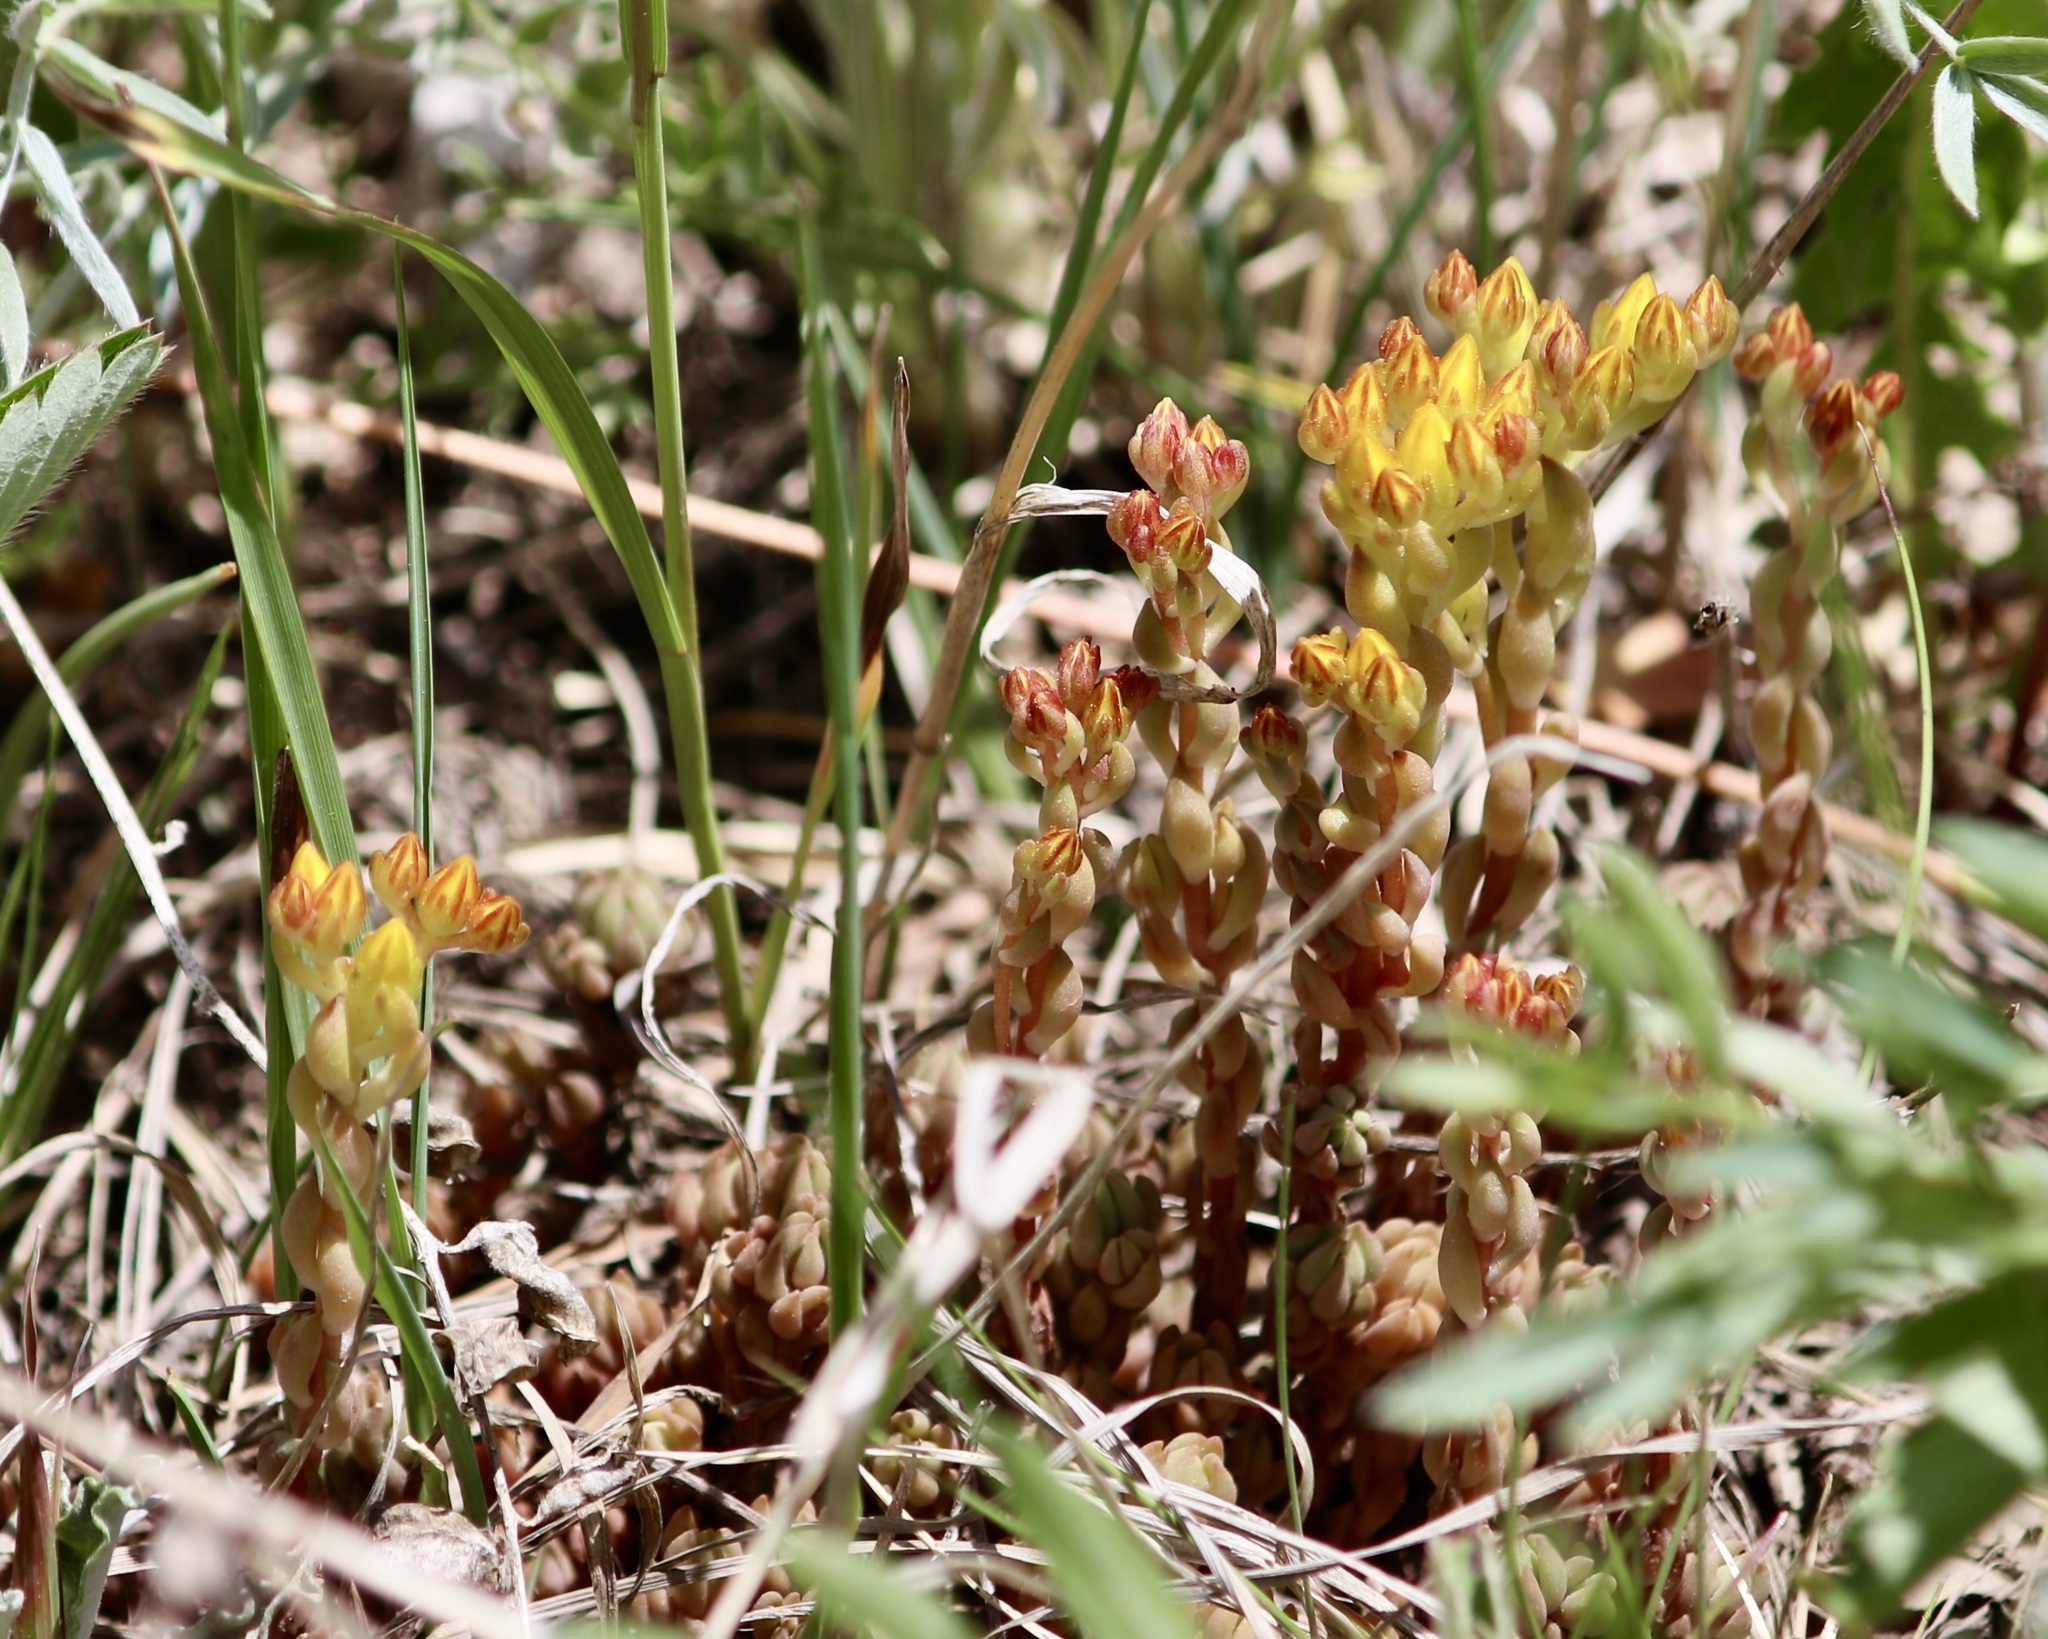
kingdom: Plantae
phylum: Tracheophyta
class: Magnoliopsida
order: Saxifragales
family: Crassulaceae
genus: Sedum
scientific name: Sedum lanceolatum
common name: Common stonecrop
